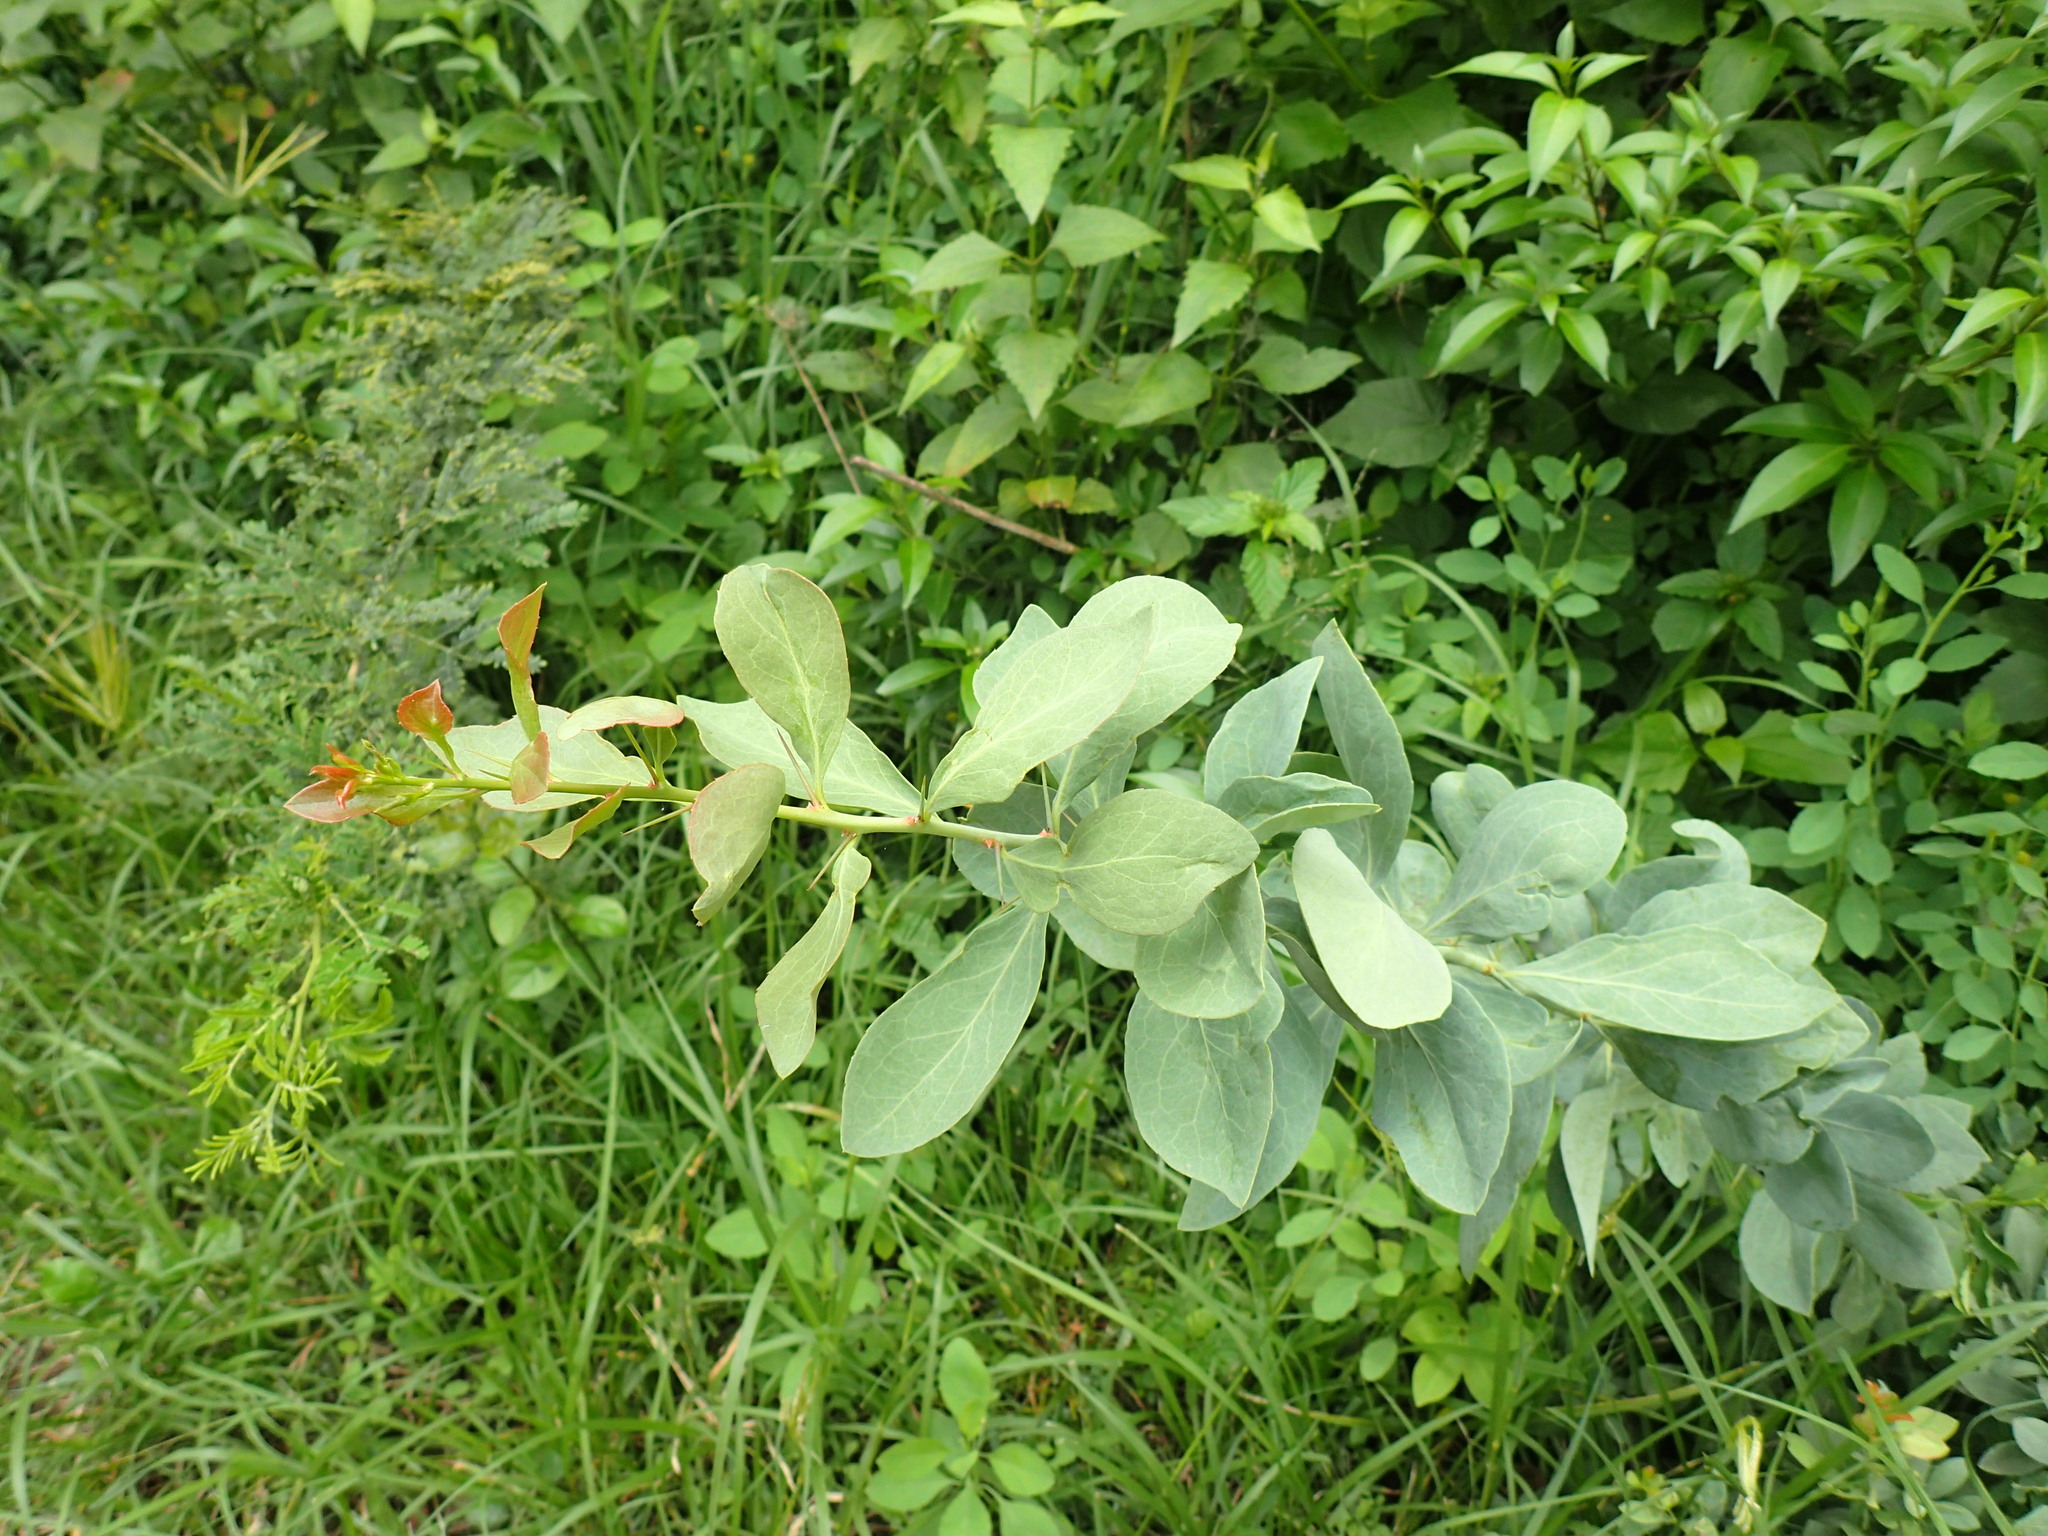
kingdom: Plantae
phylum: Tracheophyta
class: Magnoliopsida
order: Celastrales
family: Celastraceae
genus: Gymnosporia
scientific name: Gymnosporia glaucophylla
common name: Blue spike-thorn
